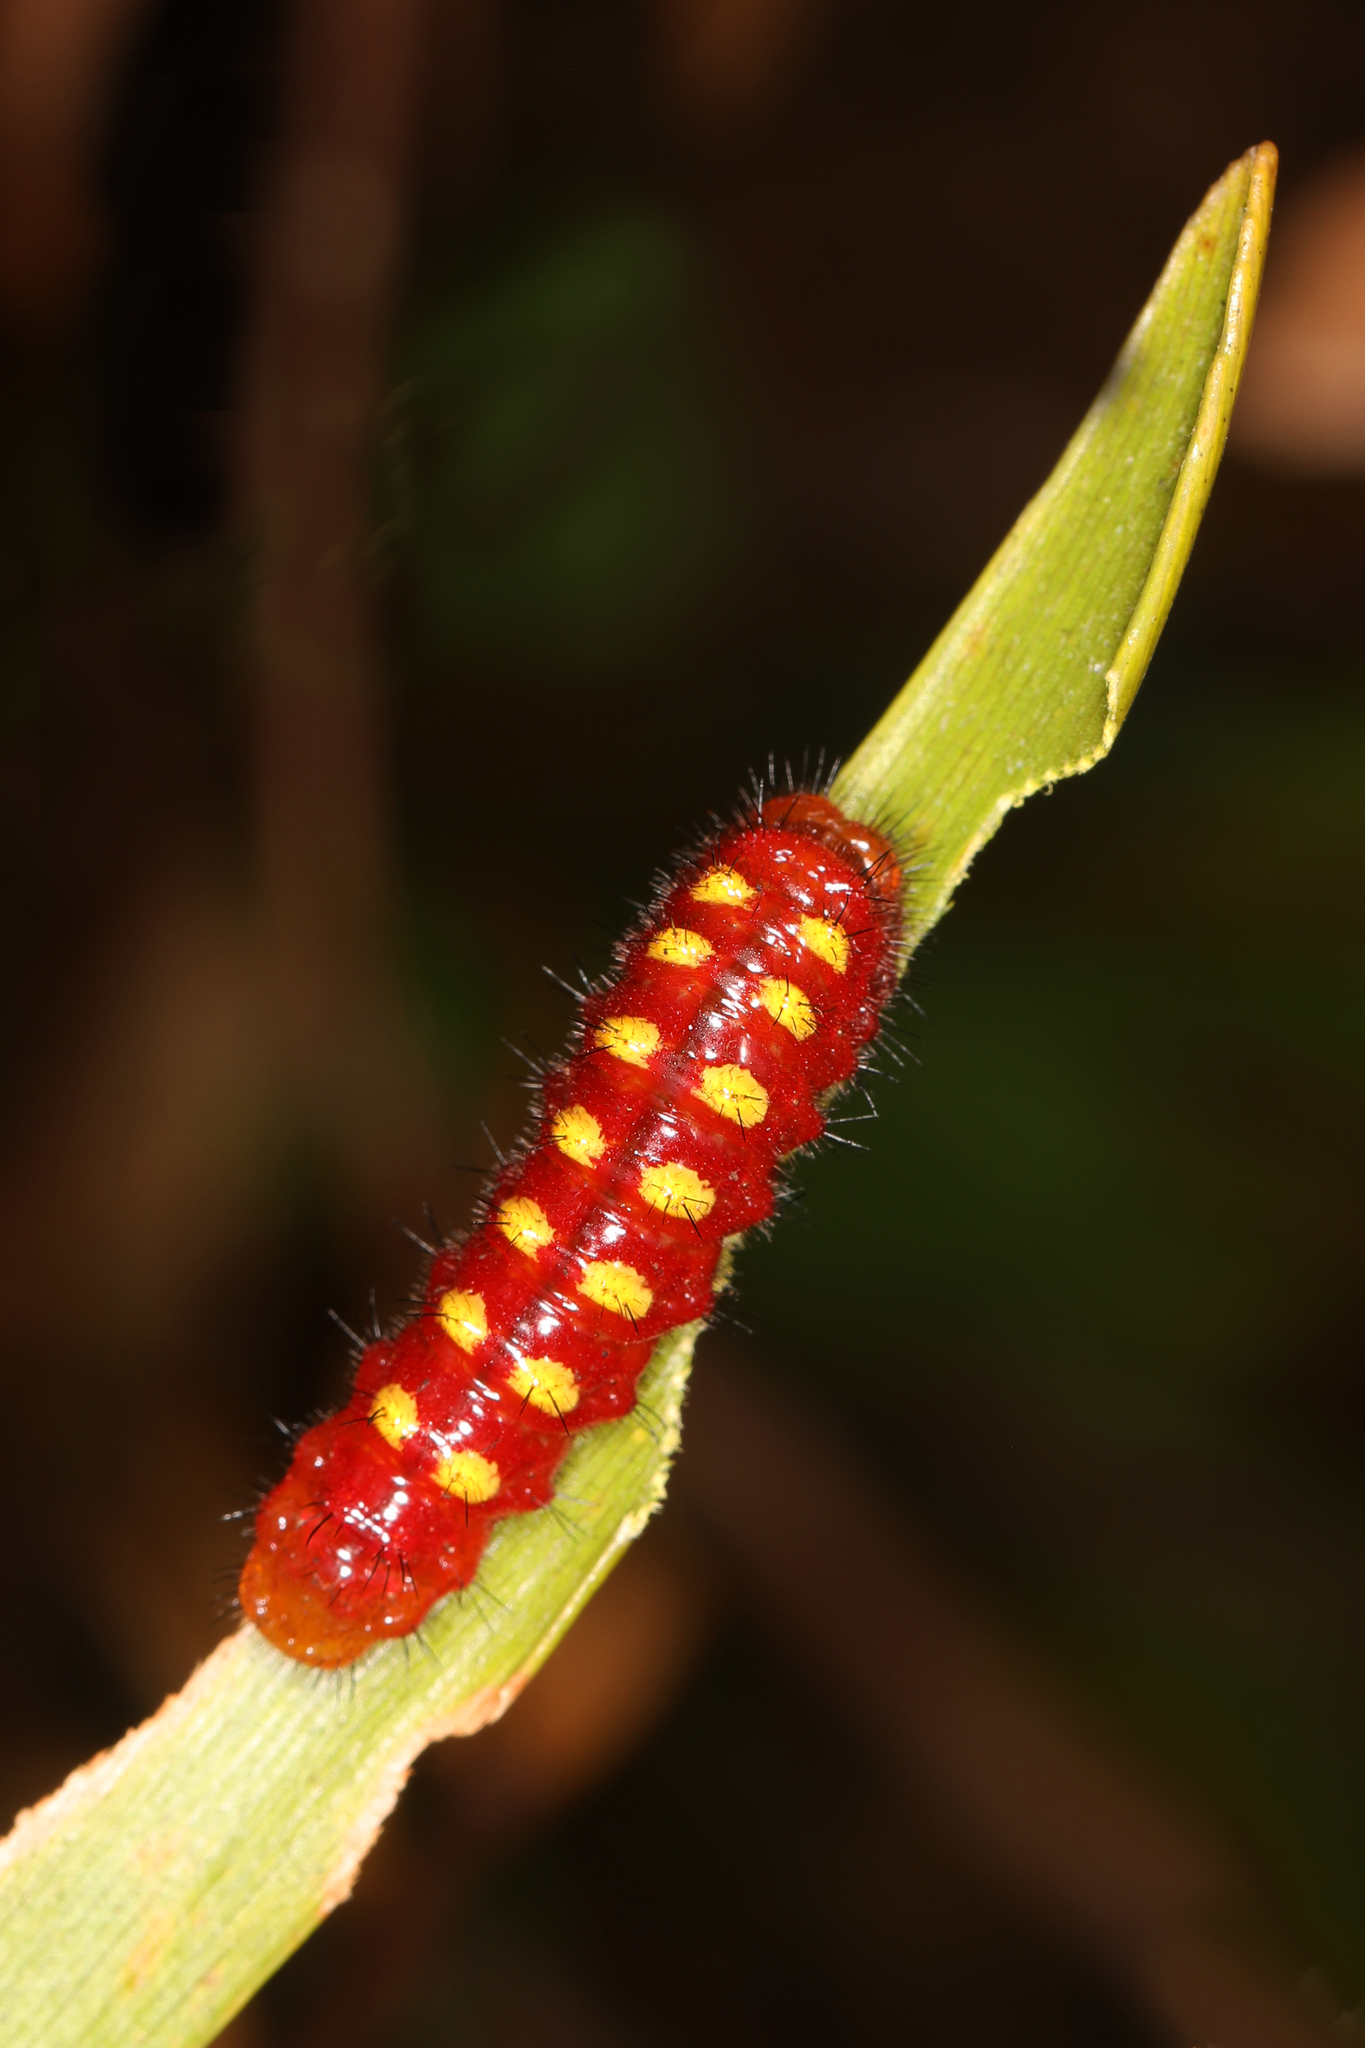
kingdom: Animalia
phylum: Arthropoda
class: Insecta
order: Lepidoptera
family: Lycaenidae
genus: Eumaeus
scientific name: Eumaeus atala
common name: Atala
